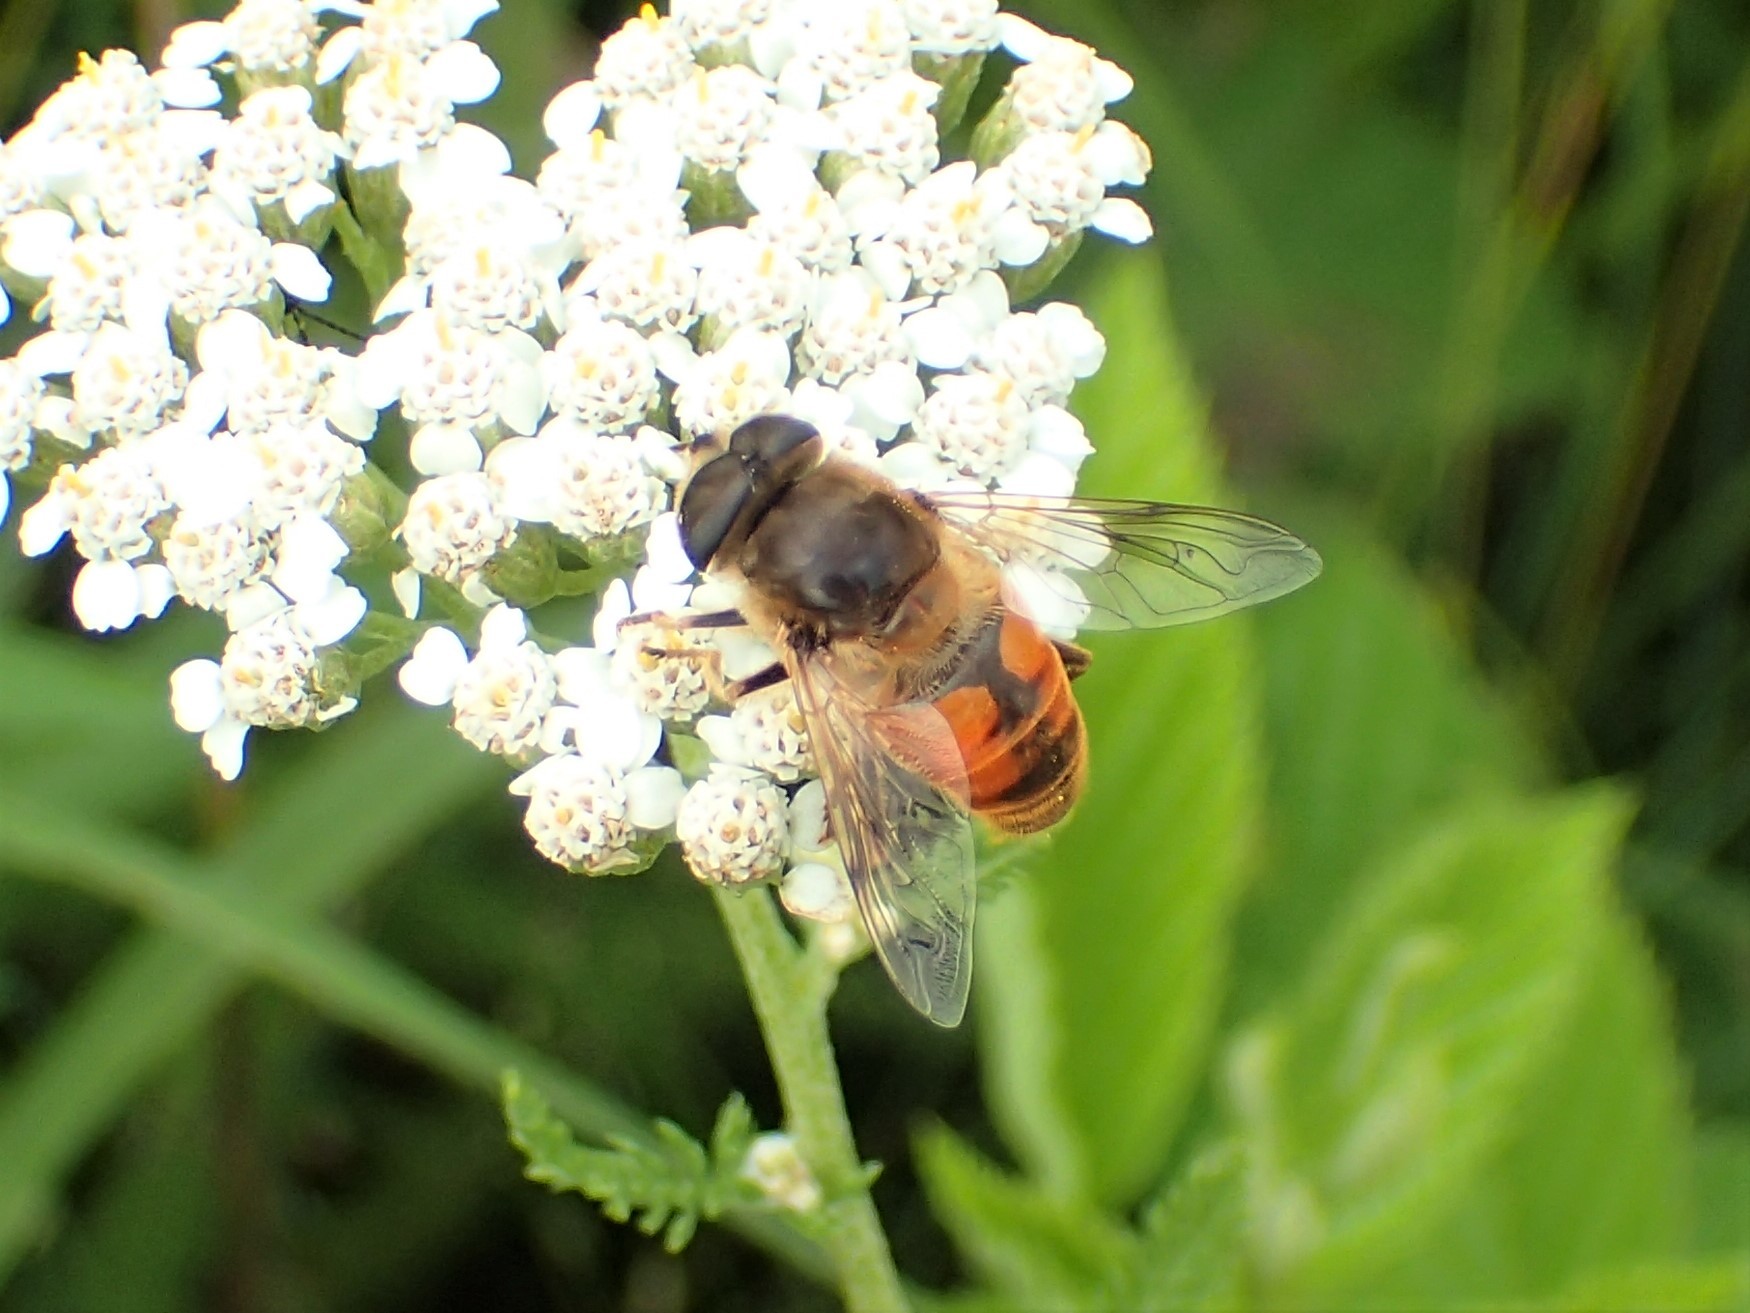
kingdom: Animalia
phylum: Arthropoda
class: Insecta
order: Diptera
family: Syrphidae
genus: Eristalis
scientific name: Eristalis tenax
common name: Drone fly
